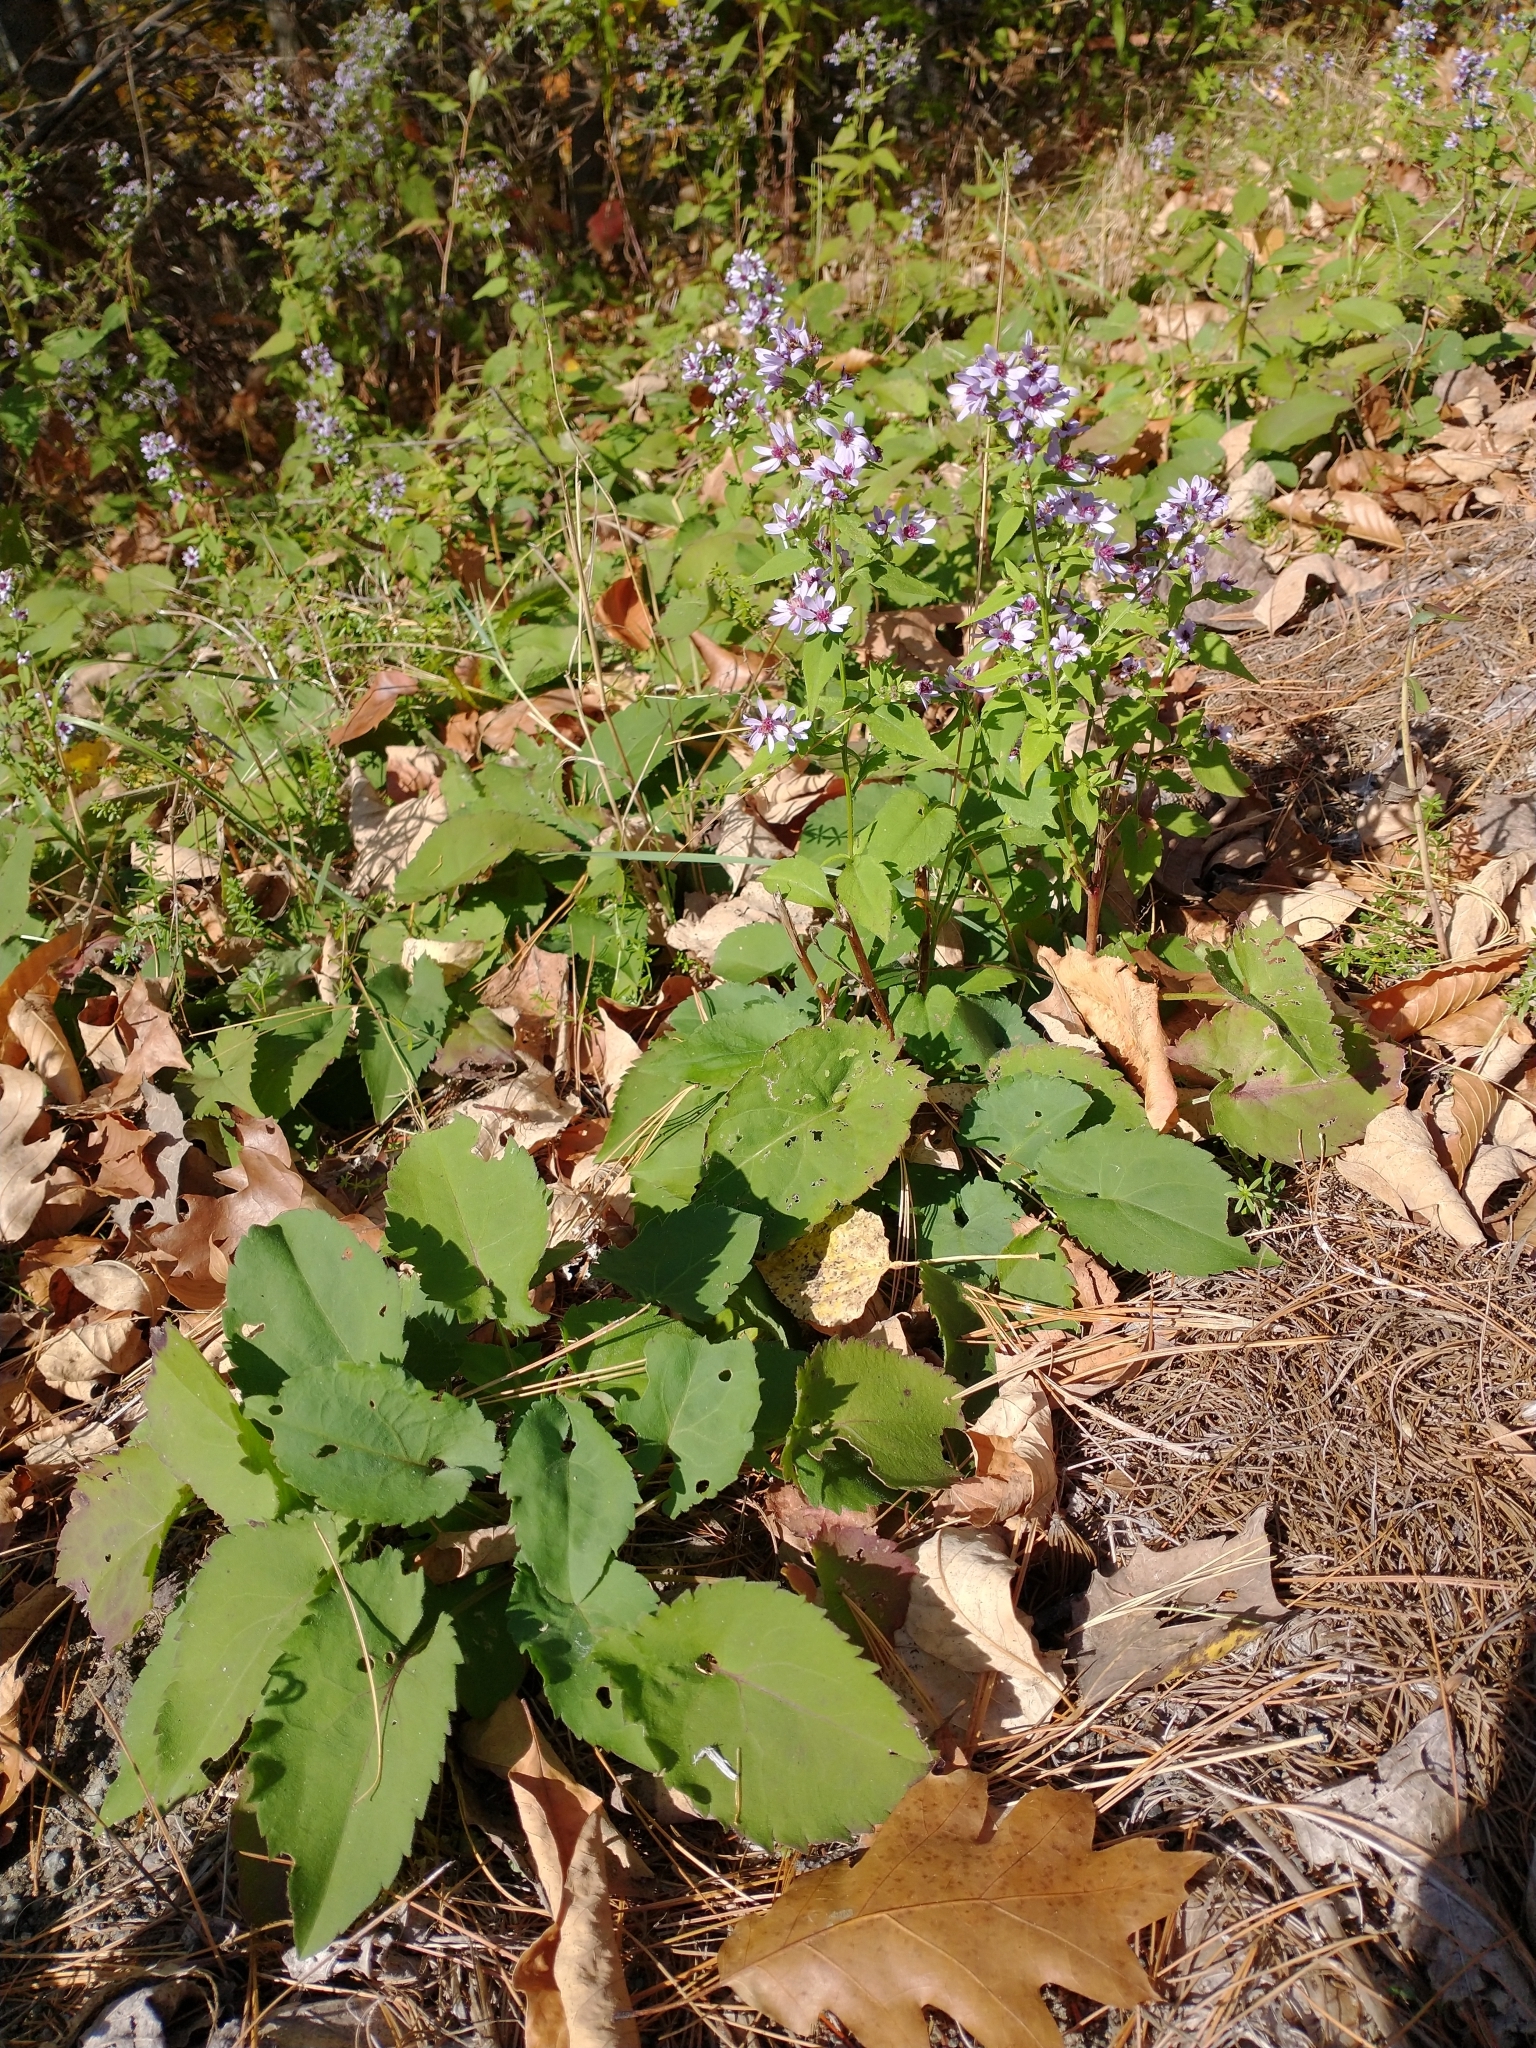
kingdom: Plantae
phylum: Tracheophyta
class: Magnoliopsida
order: Asterales
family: Asteraceae
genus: Symphyotrichum
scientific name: Symphyotrichum cordifolium
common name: Beeweed
